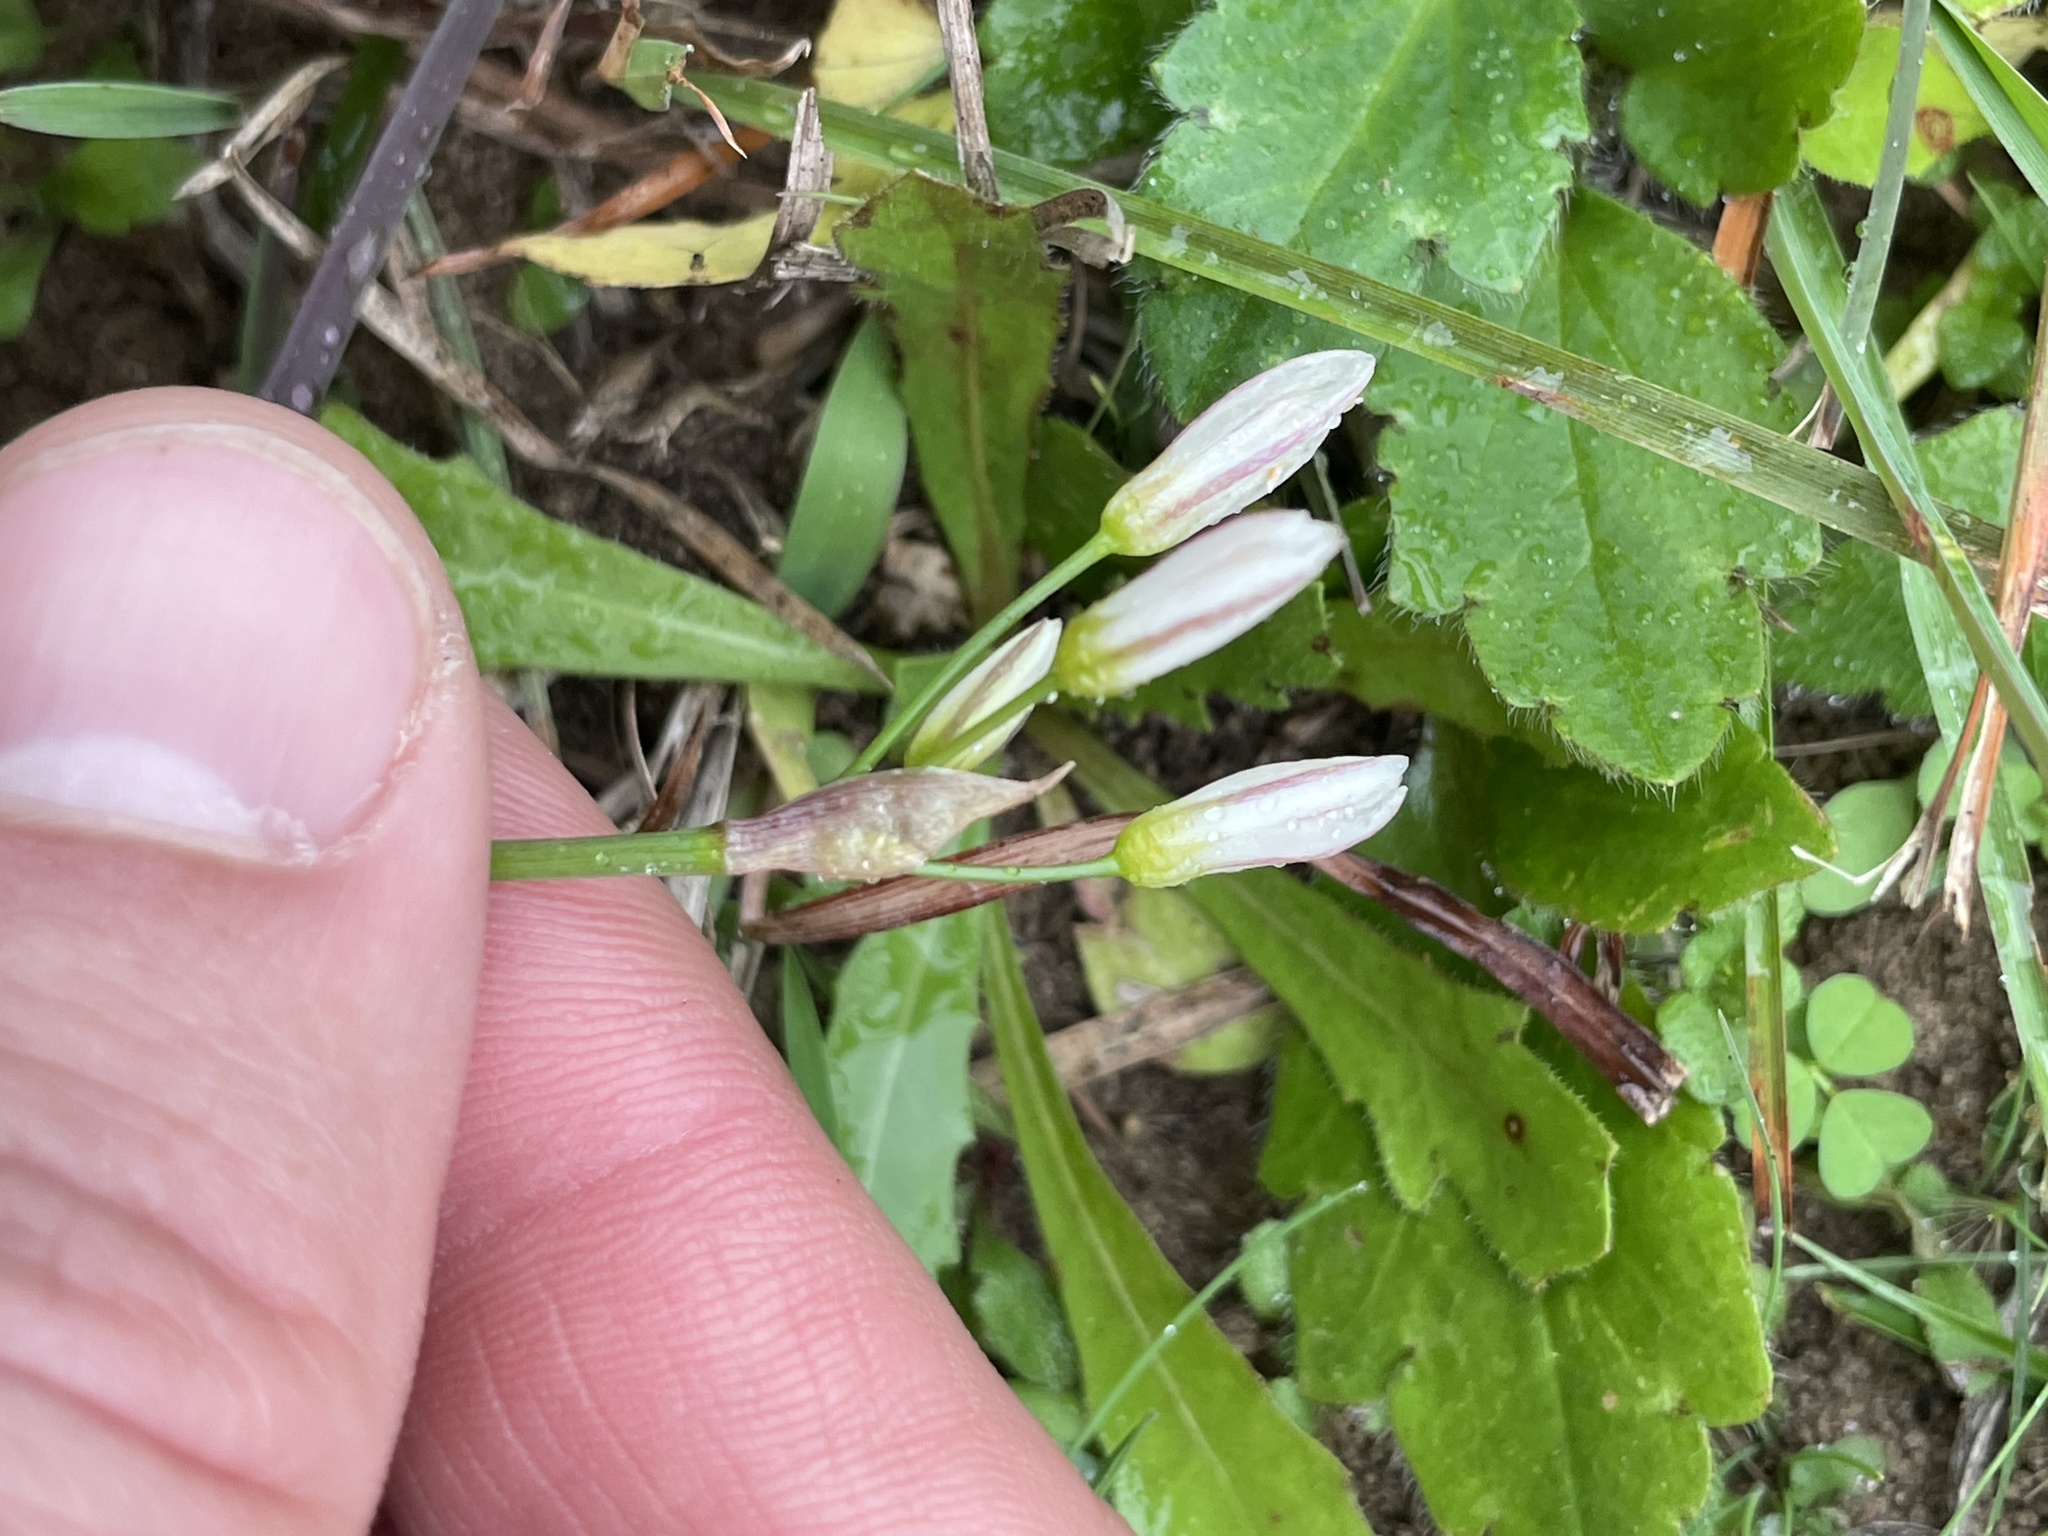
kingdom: Plantae
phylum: Tracheophyta
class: Liliopsida
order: Asparagales
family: Amaryllidaceae
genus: Nothoscordum
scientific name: Nothoscordum bivalve
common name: Crow-poison
